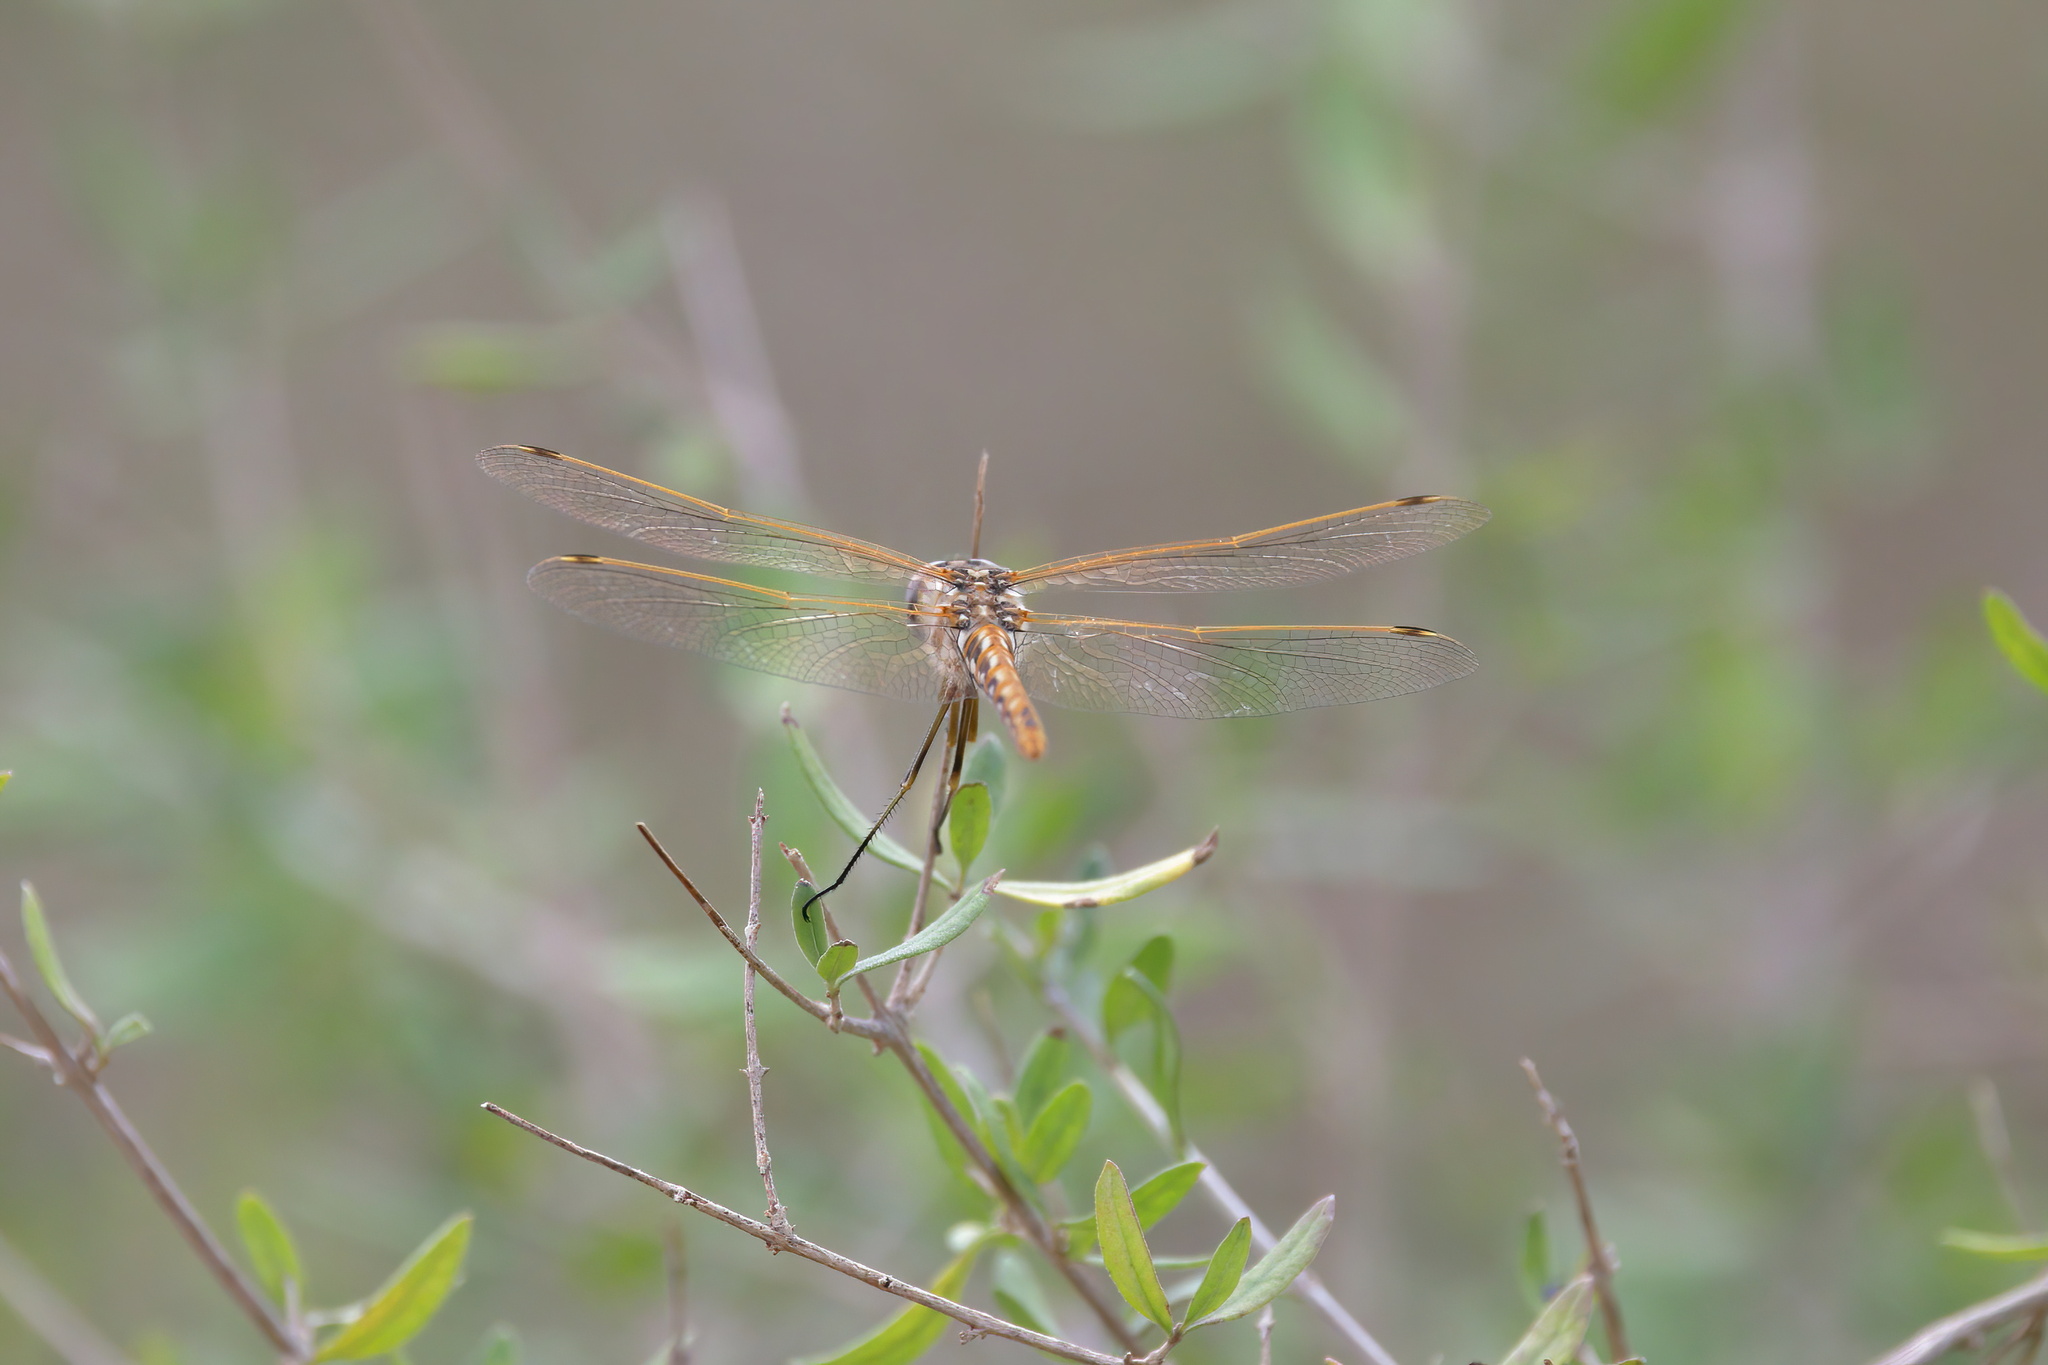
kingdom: Animalia
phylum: Arthropoda
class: Insecta
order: Odonata
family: Libellulidae
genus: Sympetrum
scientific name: Sympetrum corruptum
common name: Variegated meadowhawk
